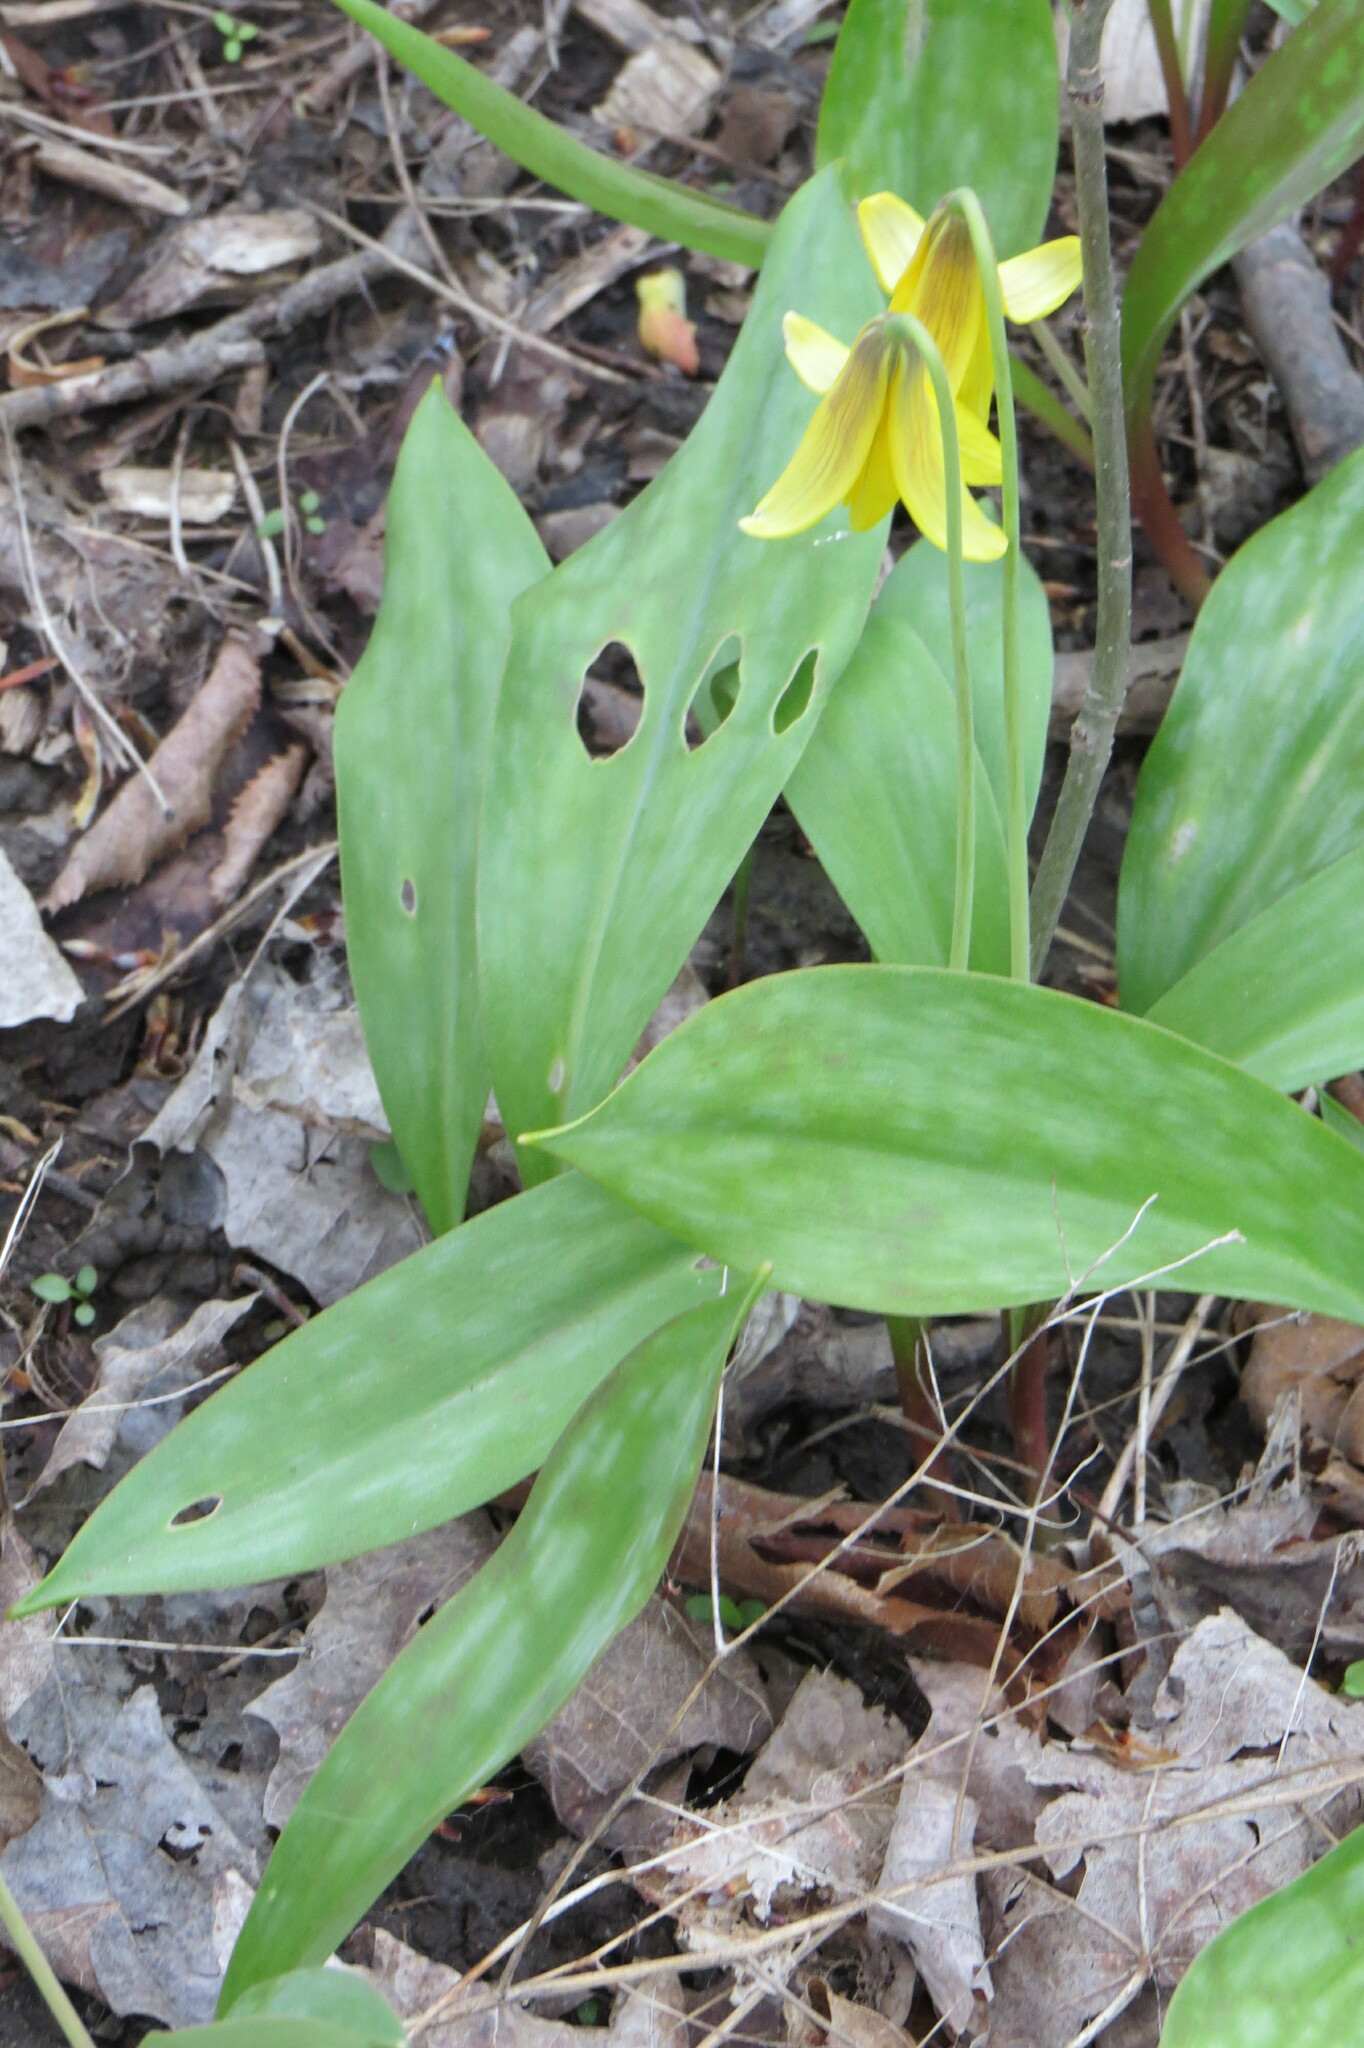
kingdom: Plantae
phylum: Tracheophyta
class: Liliopsida
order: Liliales
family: Liliaceae
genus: Erythronium
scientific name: Erythronium americanum
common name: Yellow adder's-tongue
